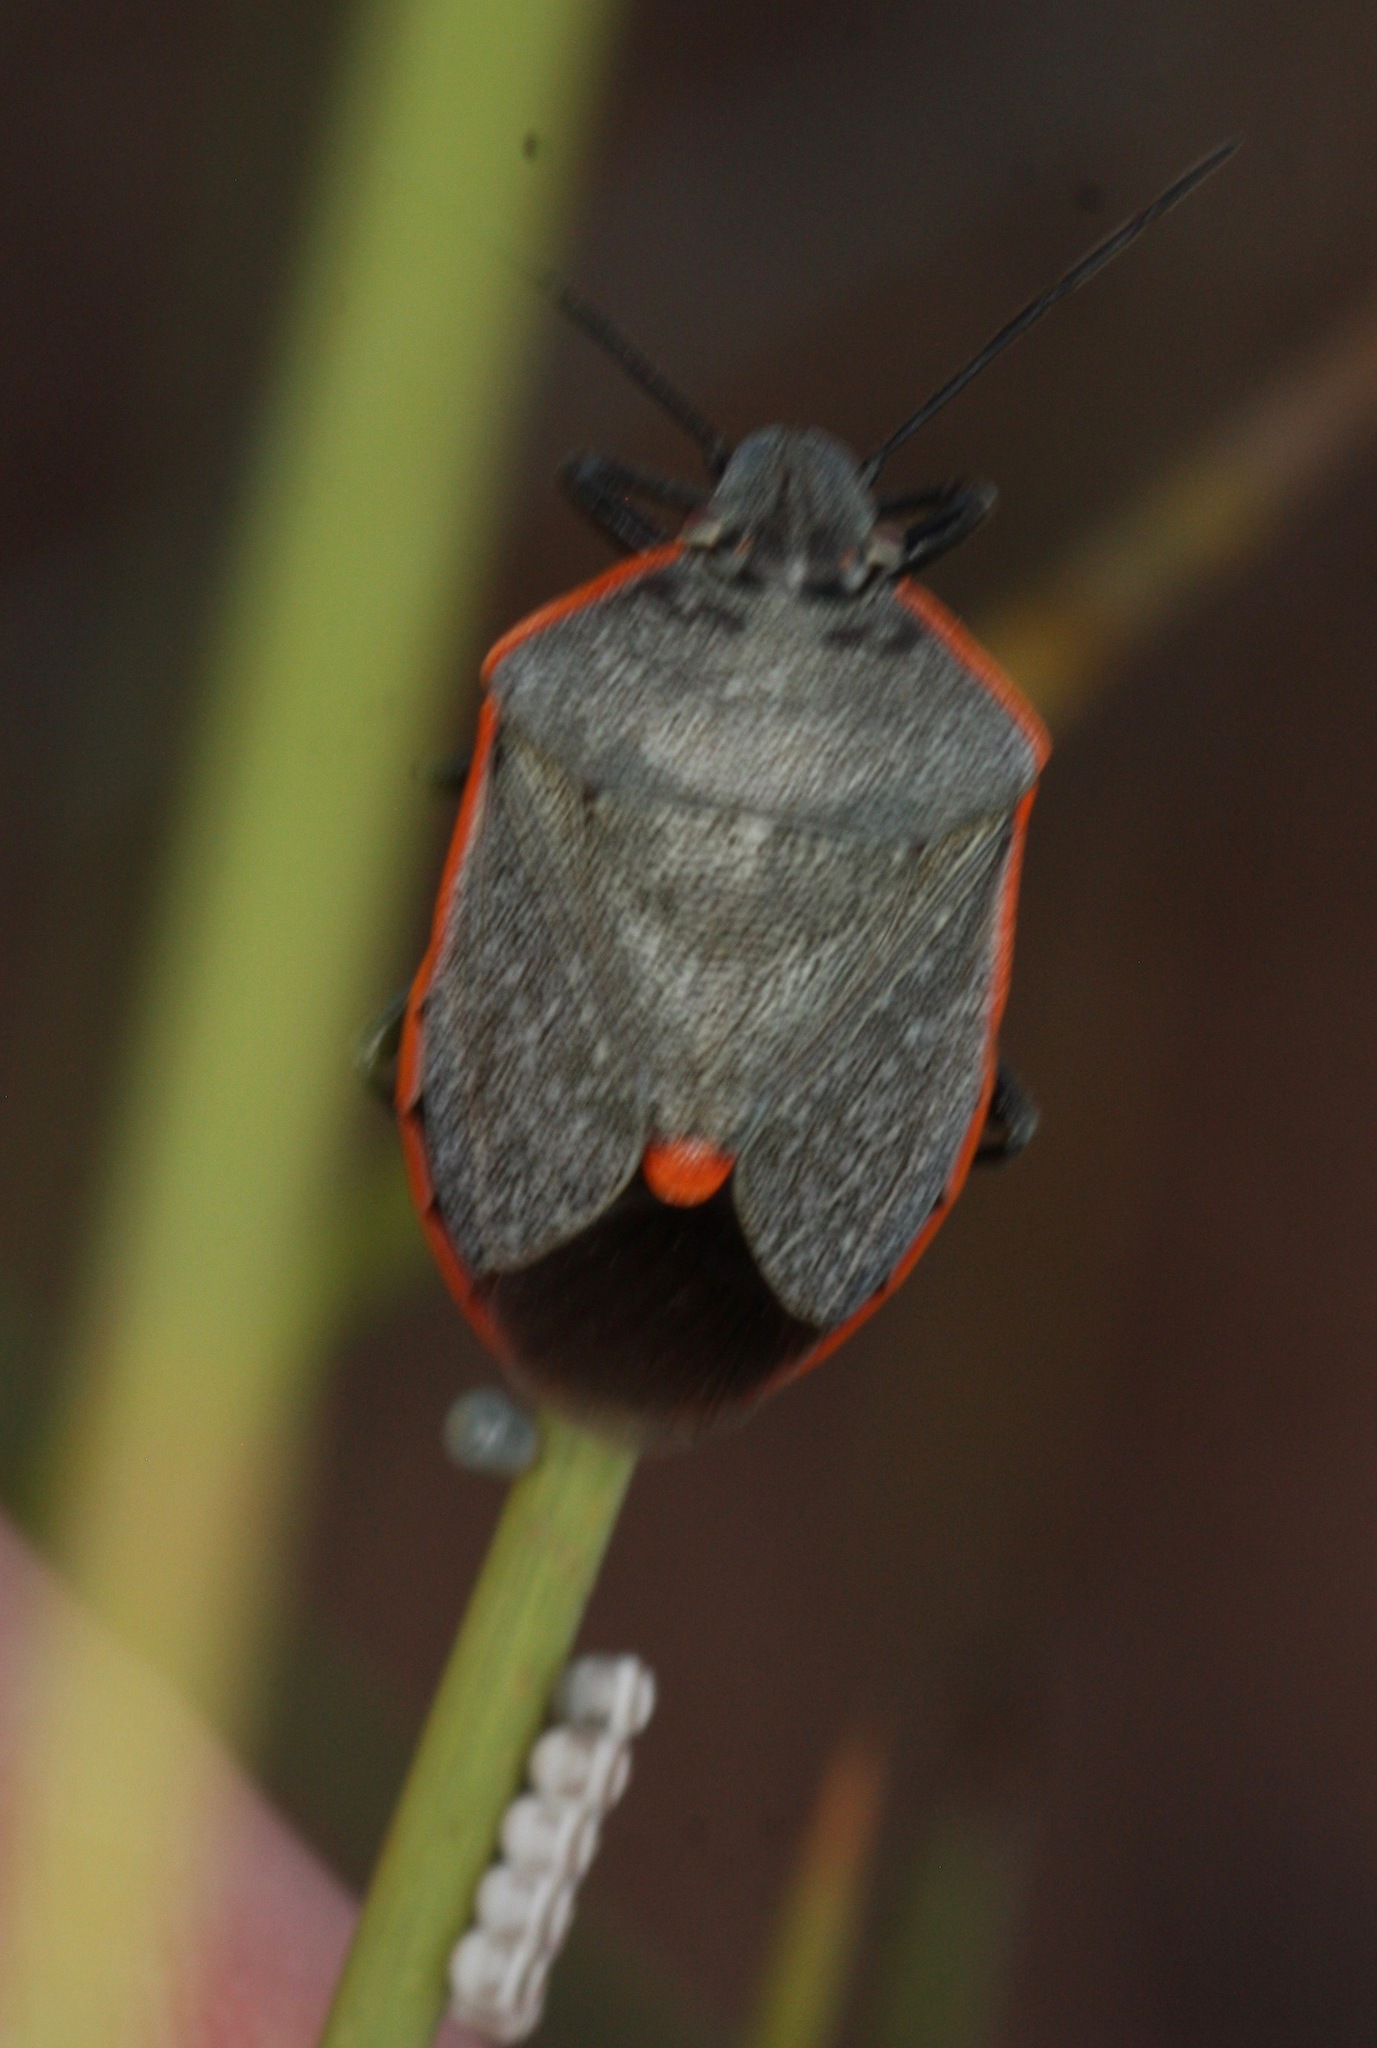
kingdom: Animalia
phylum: Arthropoda
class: Insecta
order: Hemiptera
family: Pentatomidae
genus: Chlorochroa
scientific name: Chlorochroa ligata
